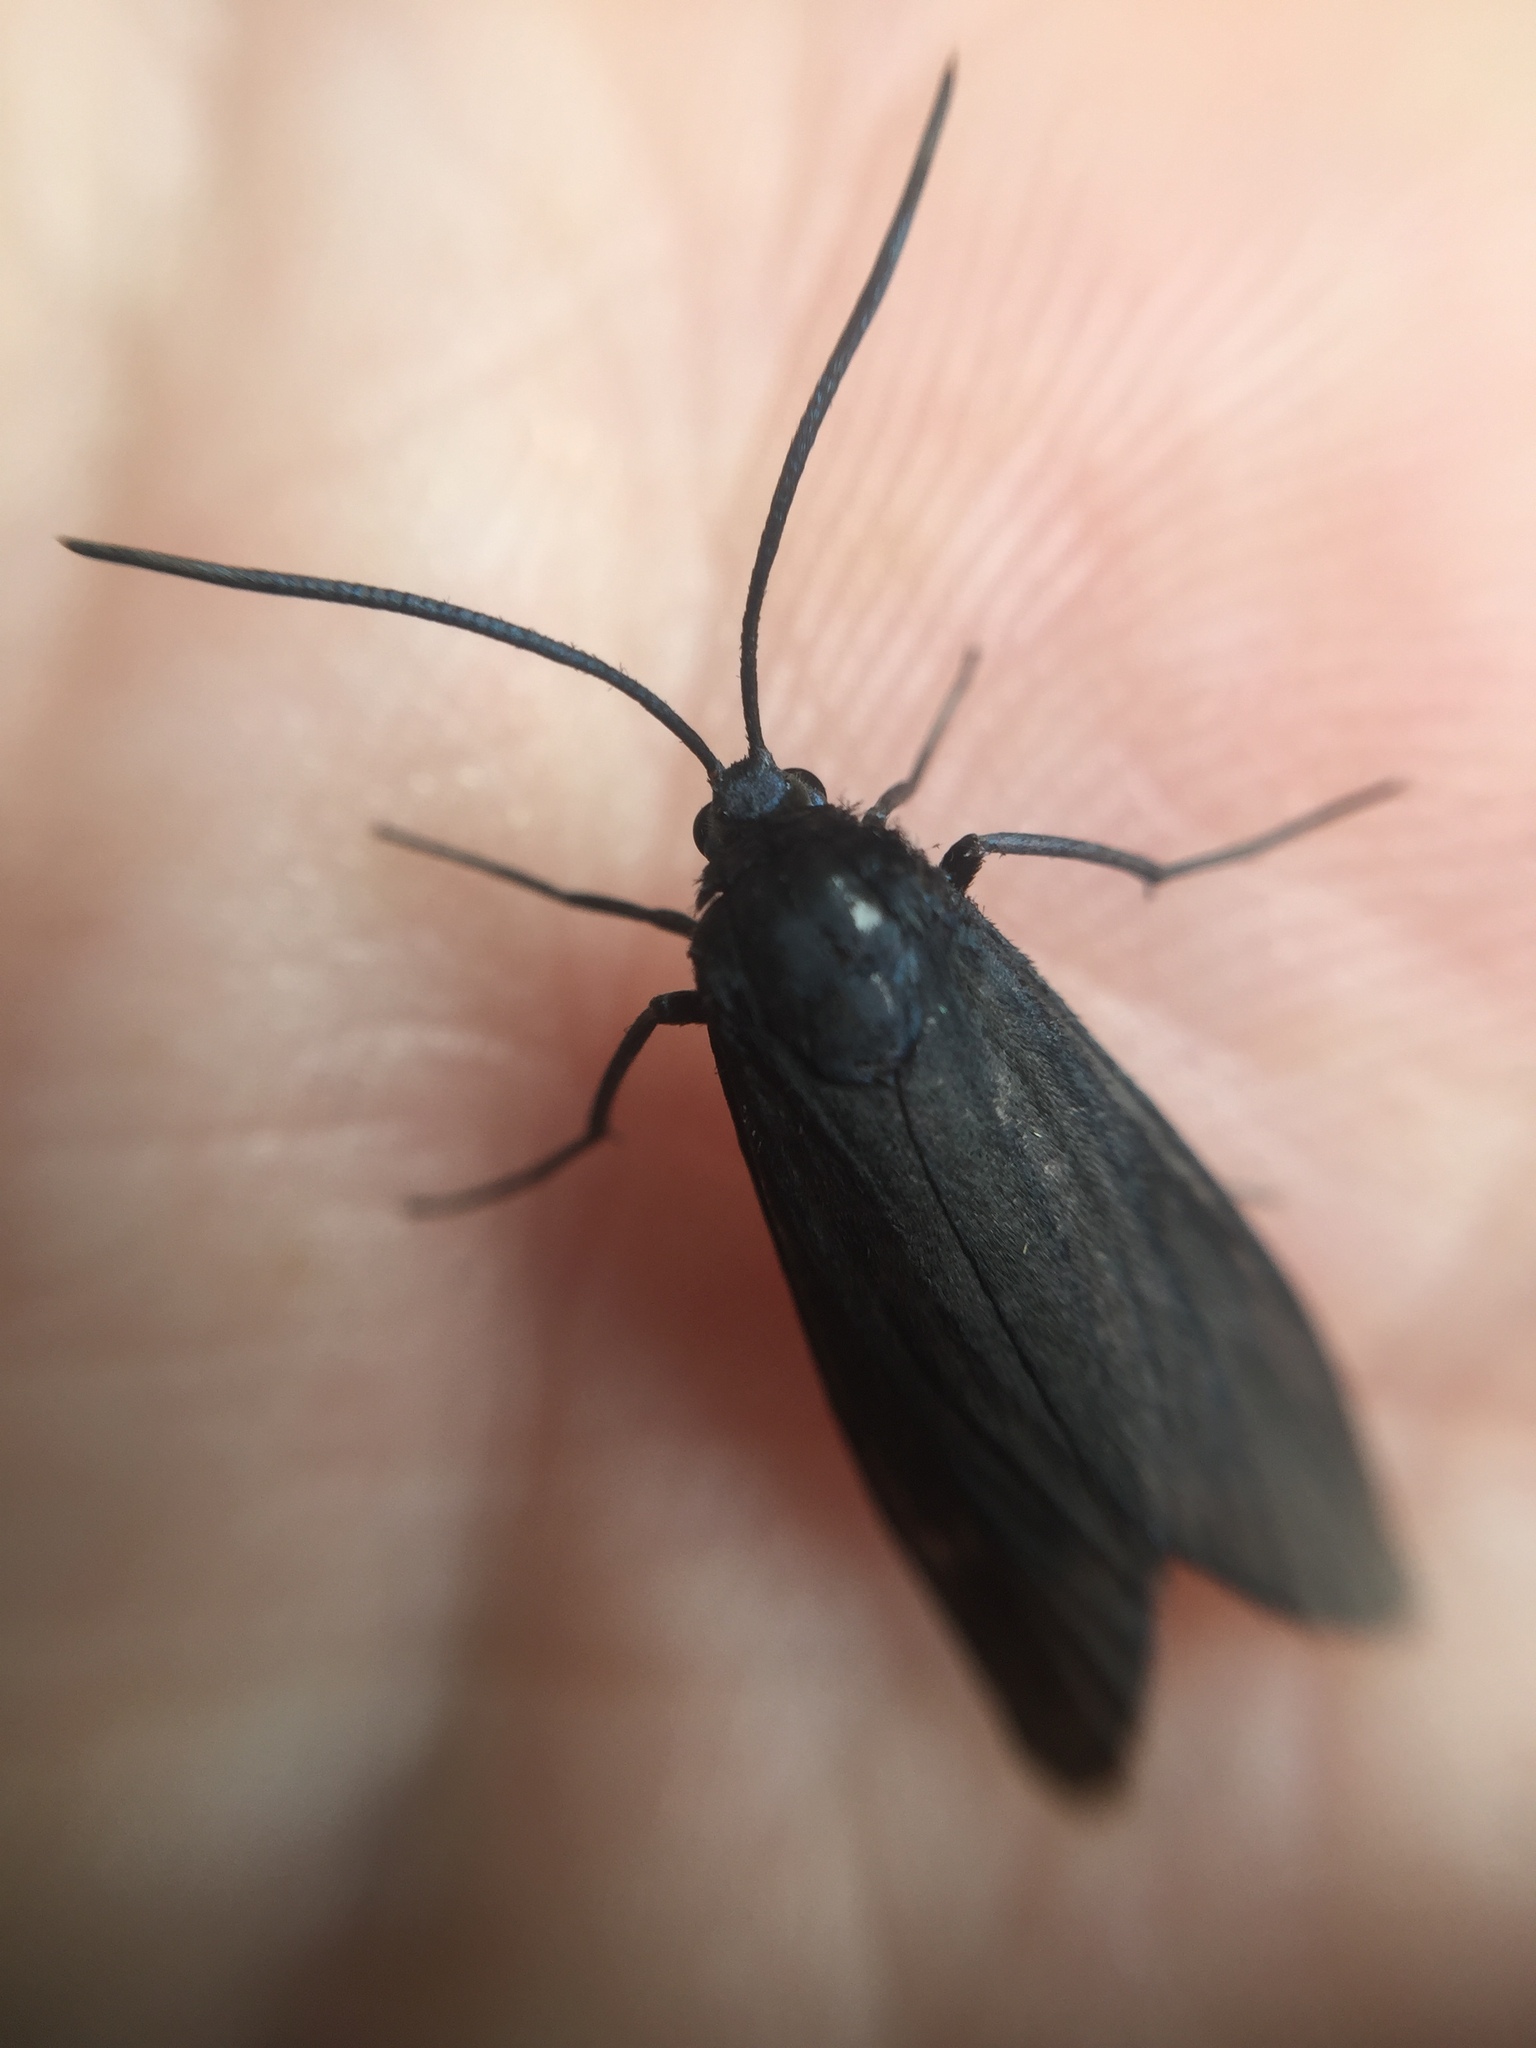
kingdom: Animalia
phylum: Arthropoda
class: Insecta
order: Lepidoptera
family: Zygaenidae
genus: Artona
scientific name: Artona martini
